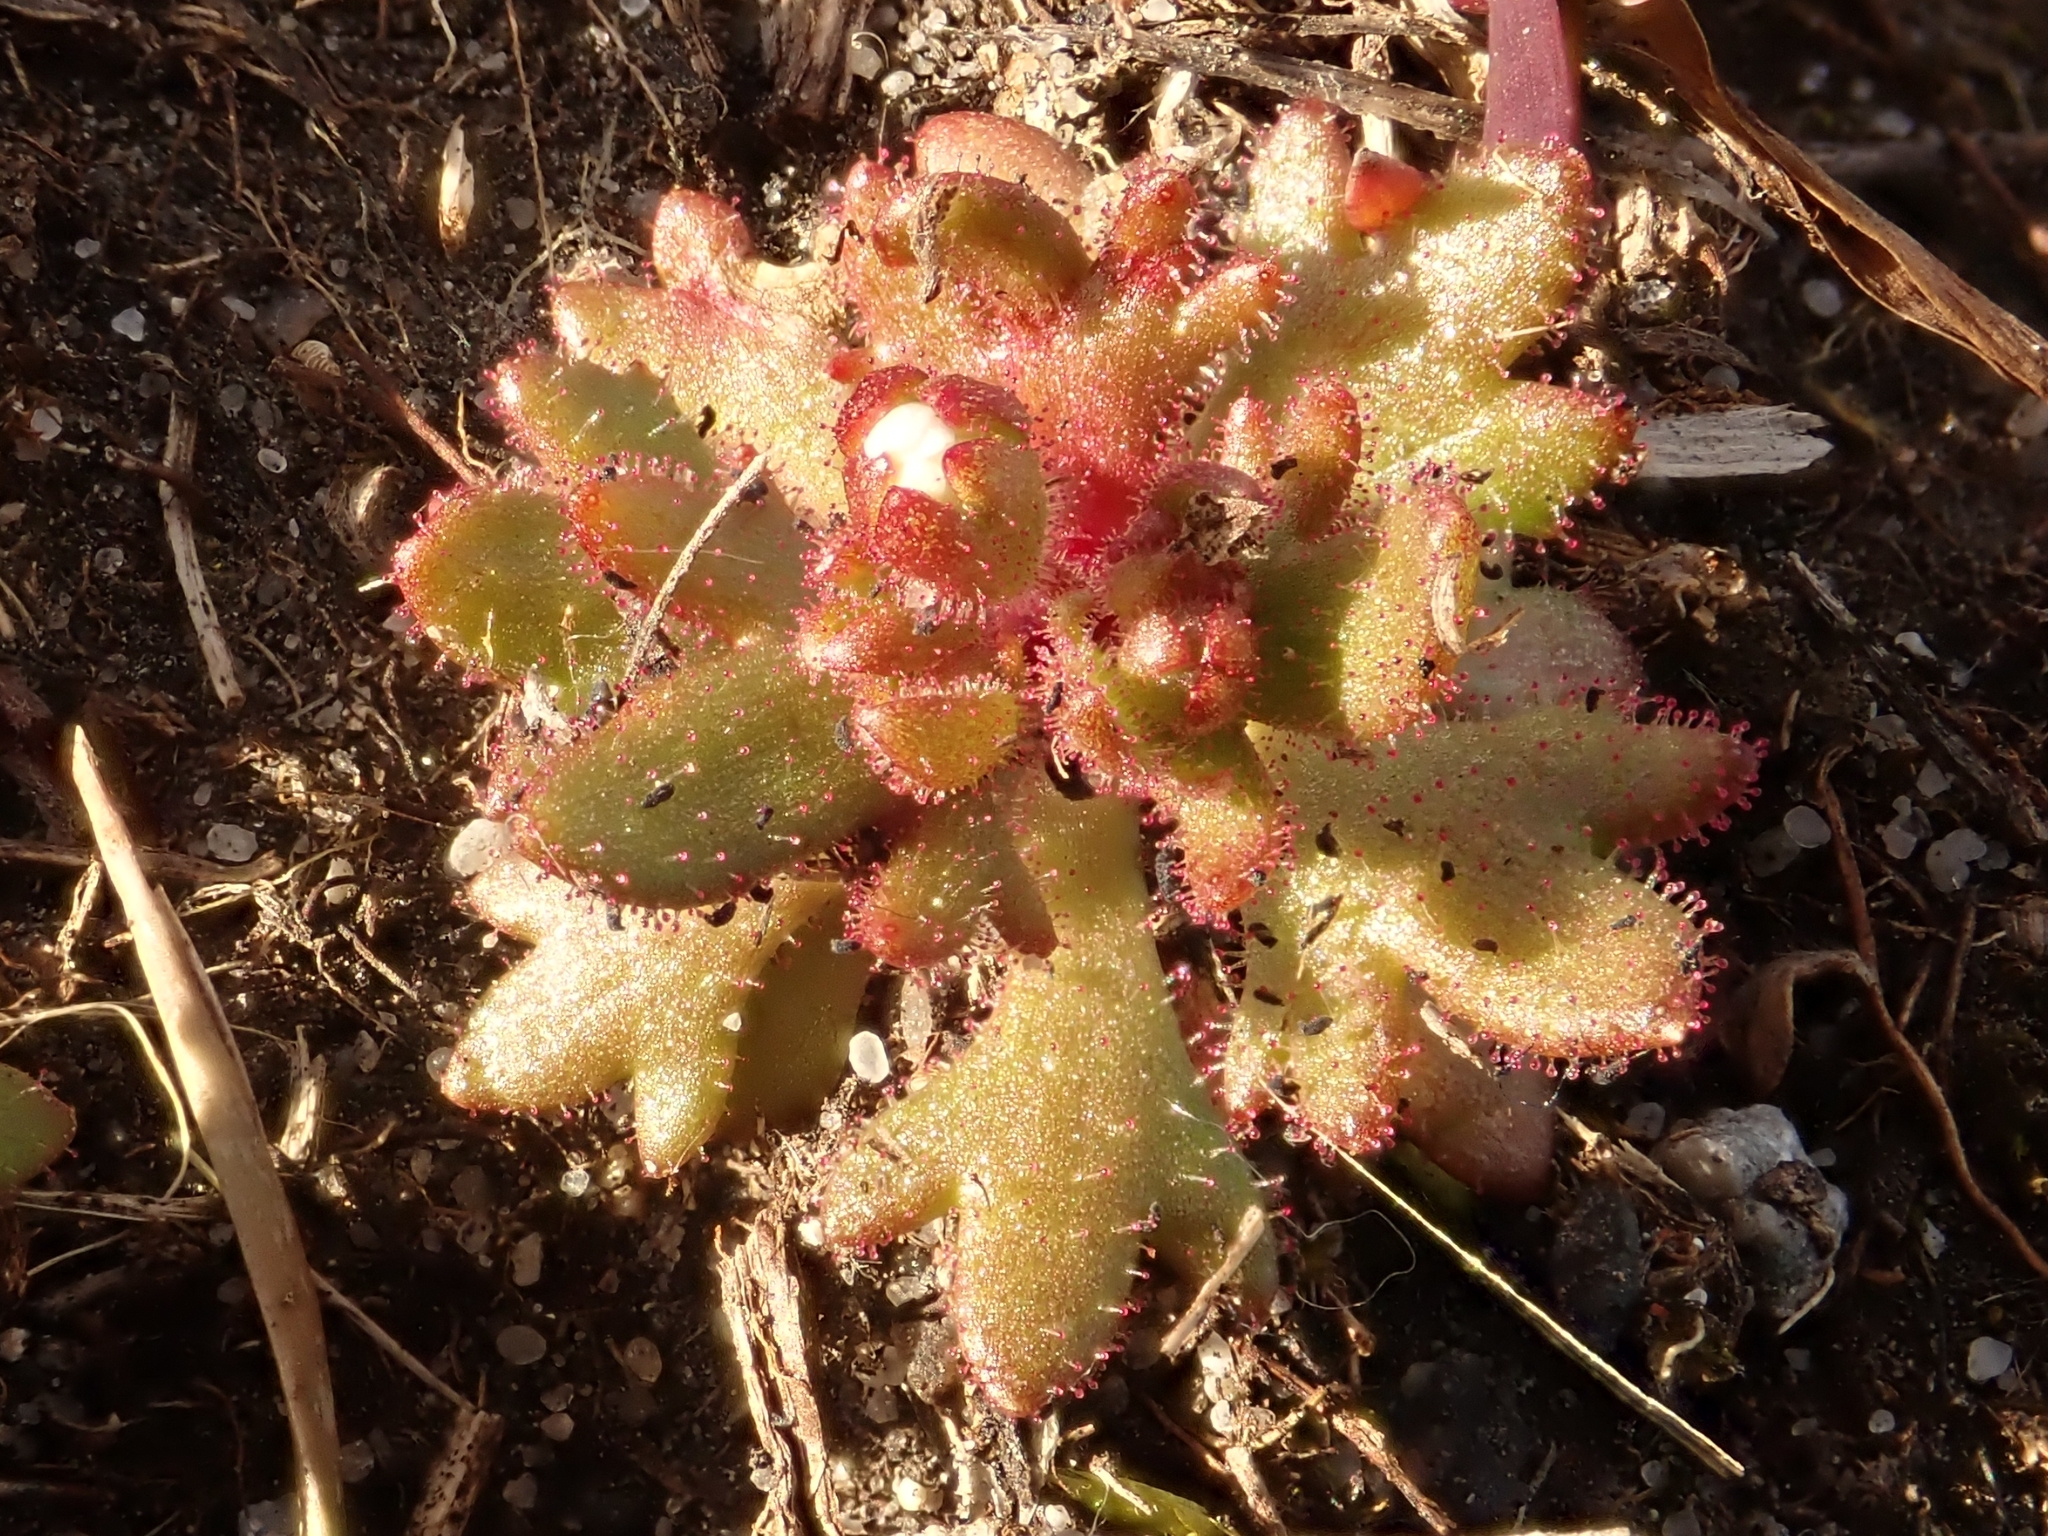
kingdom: Plantae
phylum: Tracheophyta
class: Magnoliopsida
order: Saxifragales
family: Saxifragaceae
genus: Saxifraga
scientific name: Saxifraga tridactylites
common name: Rue-leaved saxifrage
